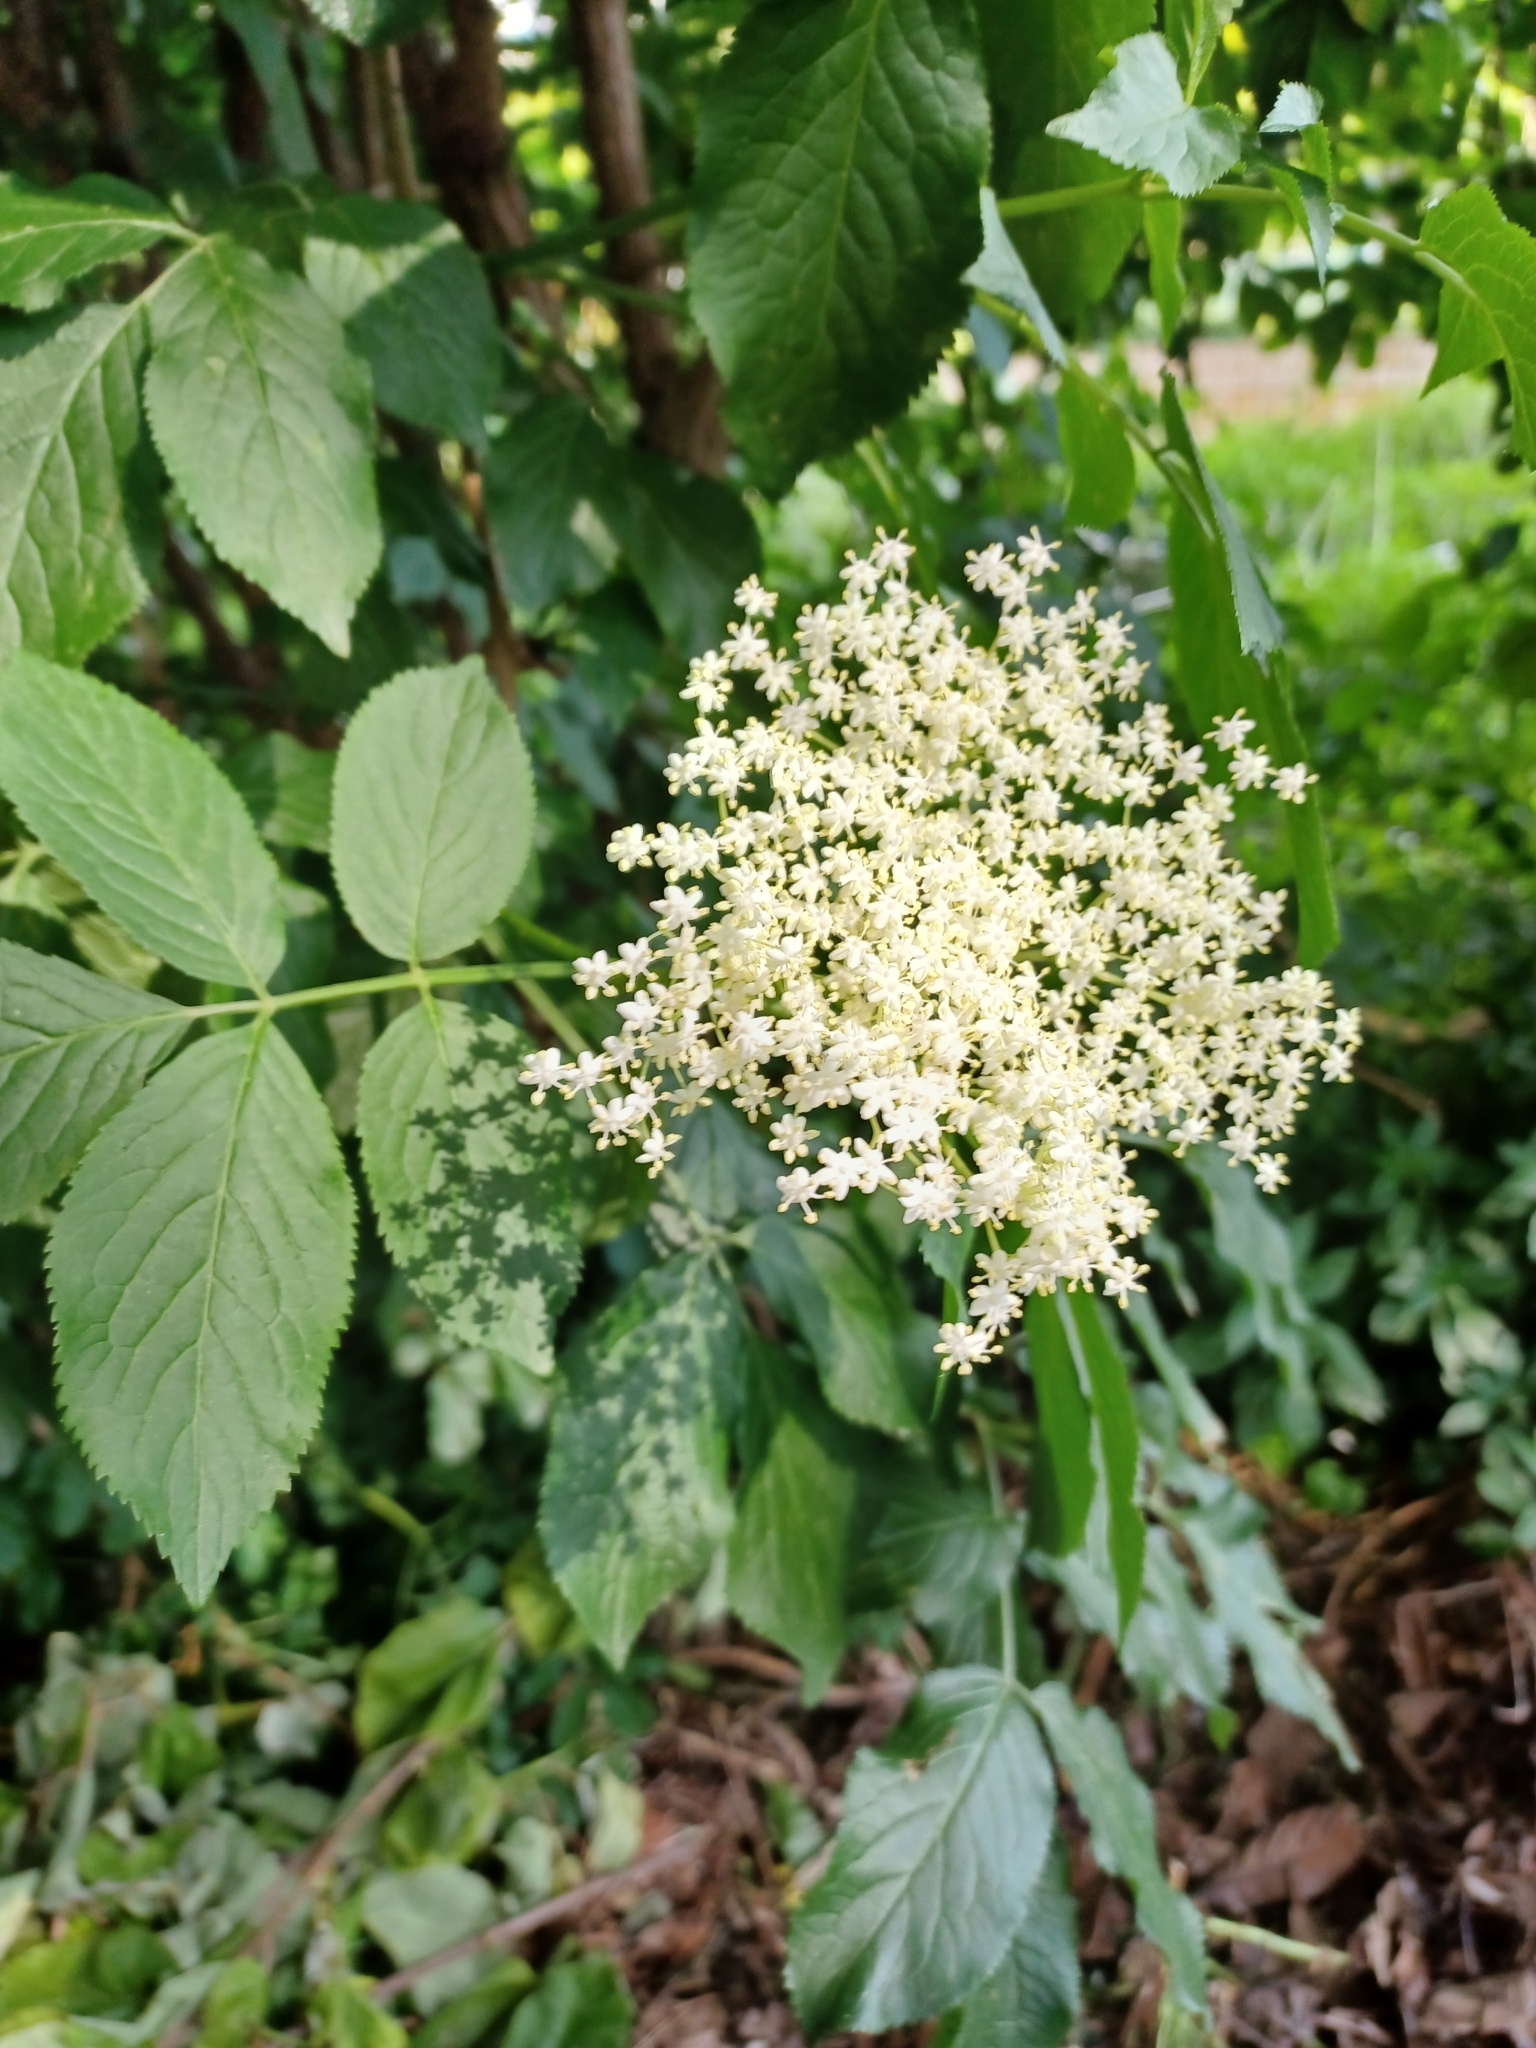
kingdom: Plantae
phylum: Tracheophyta
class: Magnoliopsida
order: Dipsacales
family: Viburnaceae
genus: Sambucus
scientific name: Sambucus nigra
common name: Elder
